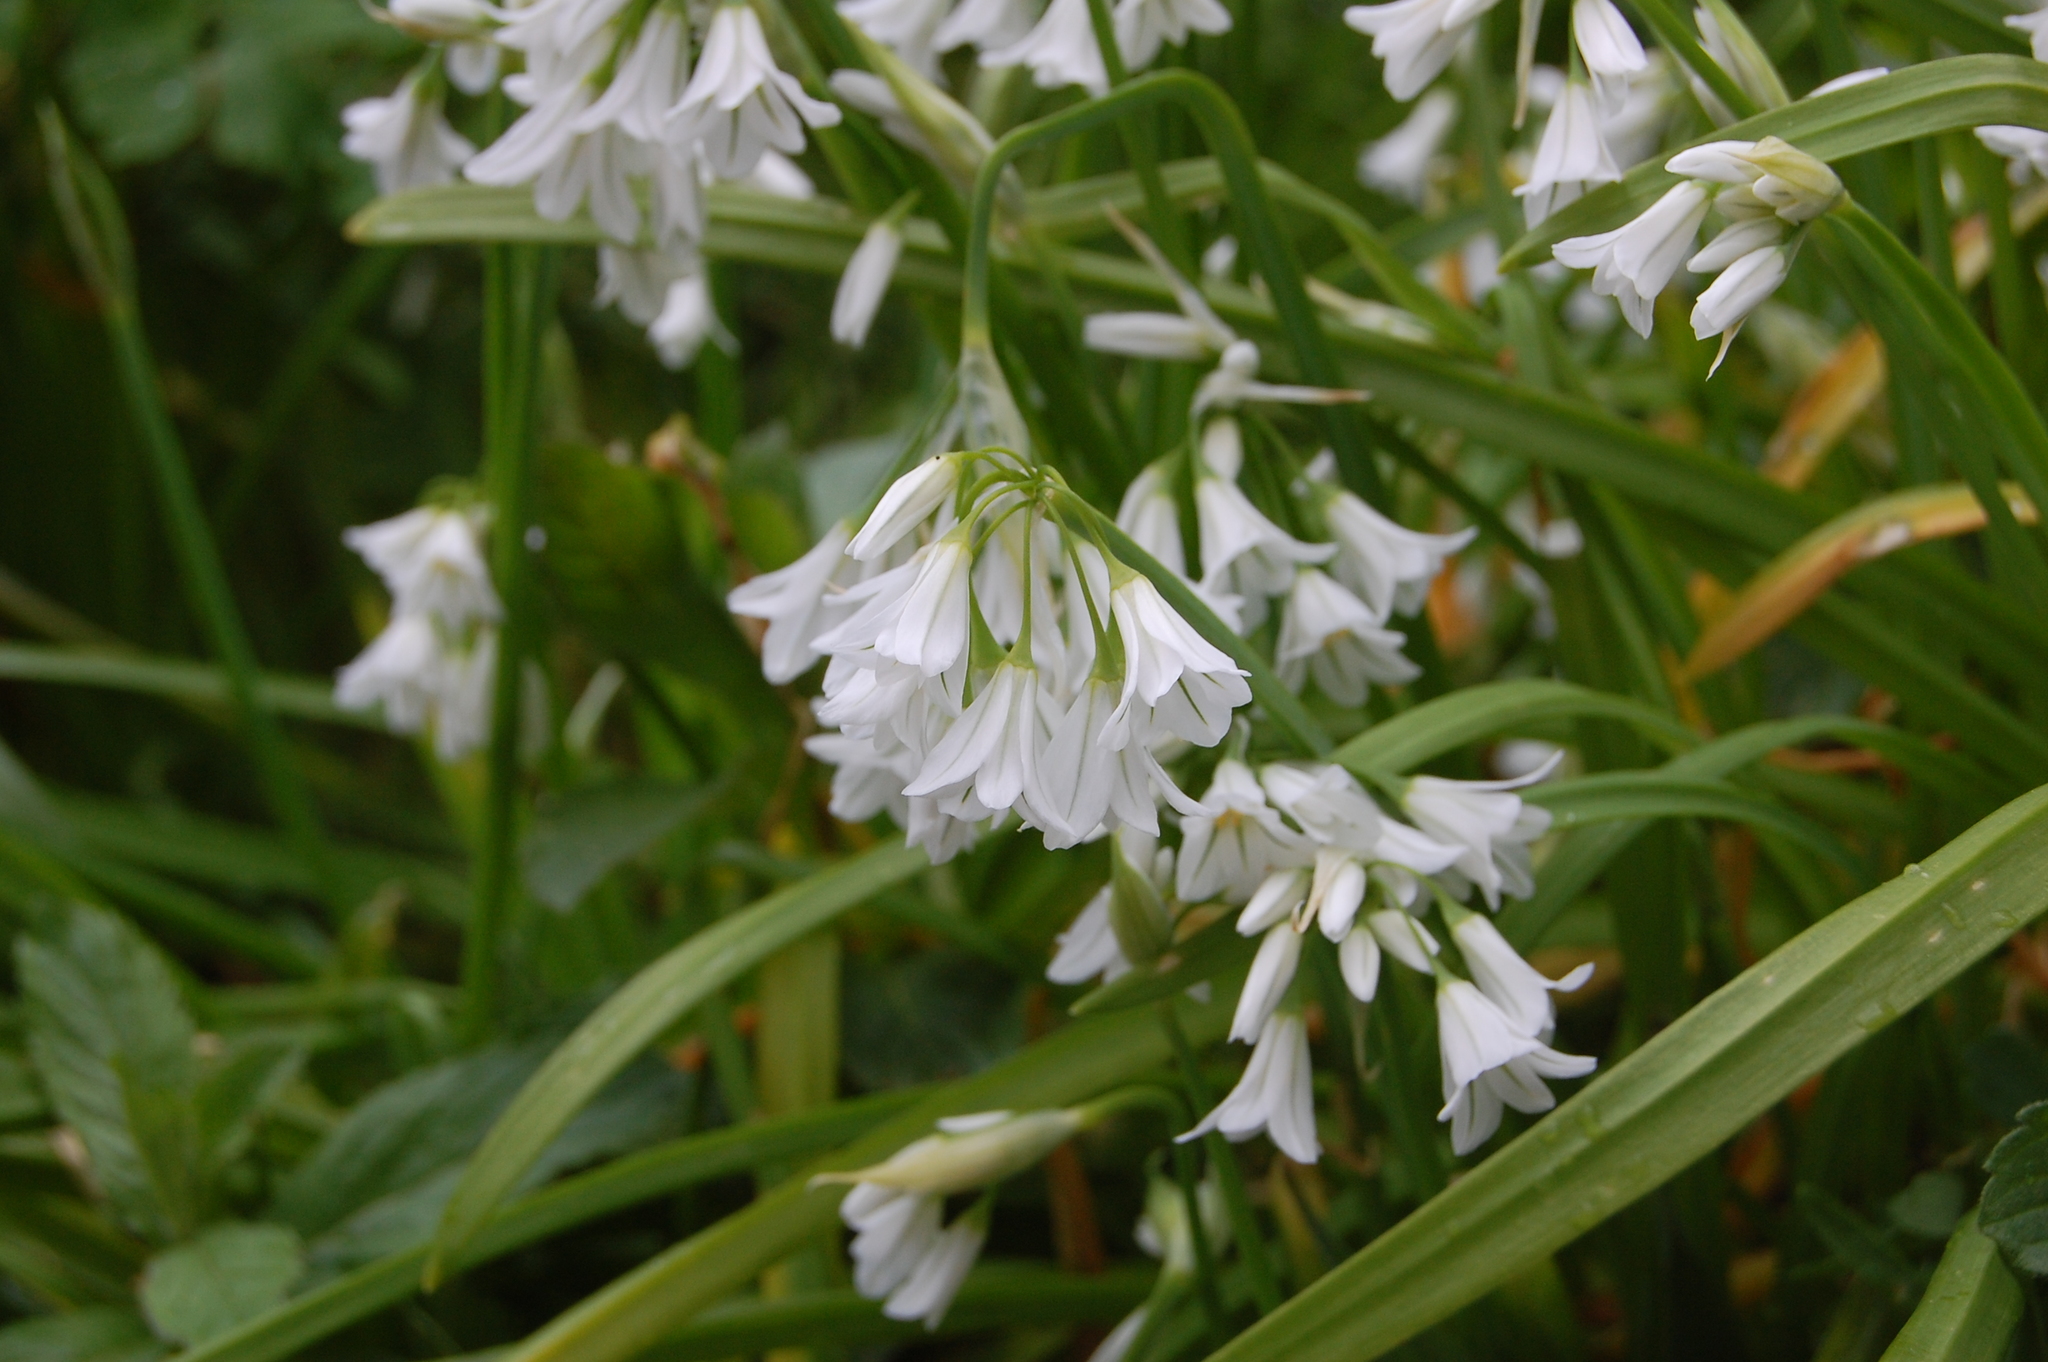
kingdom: Plantae
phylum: Tracheophyta
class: Liliopsida
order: Asparagales
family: Amaryllidaceae
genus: Allium
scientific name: Allium triquetrum
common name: Three-cornered garlic
